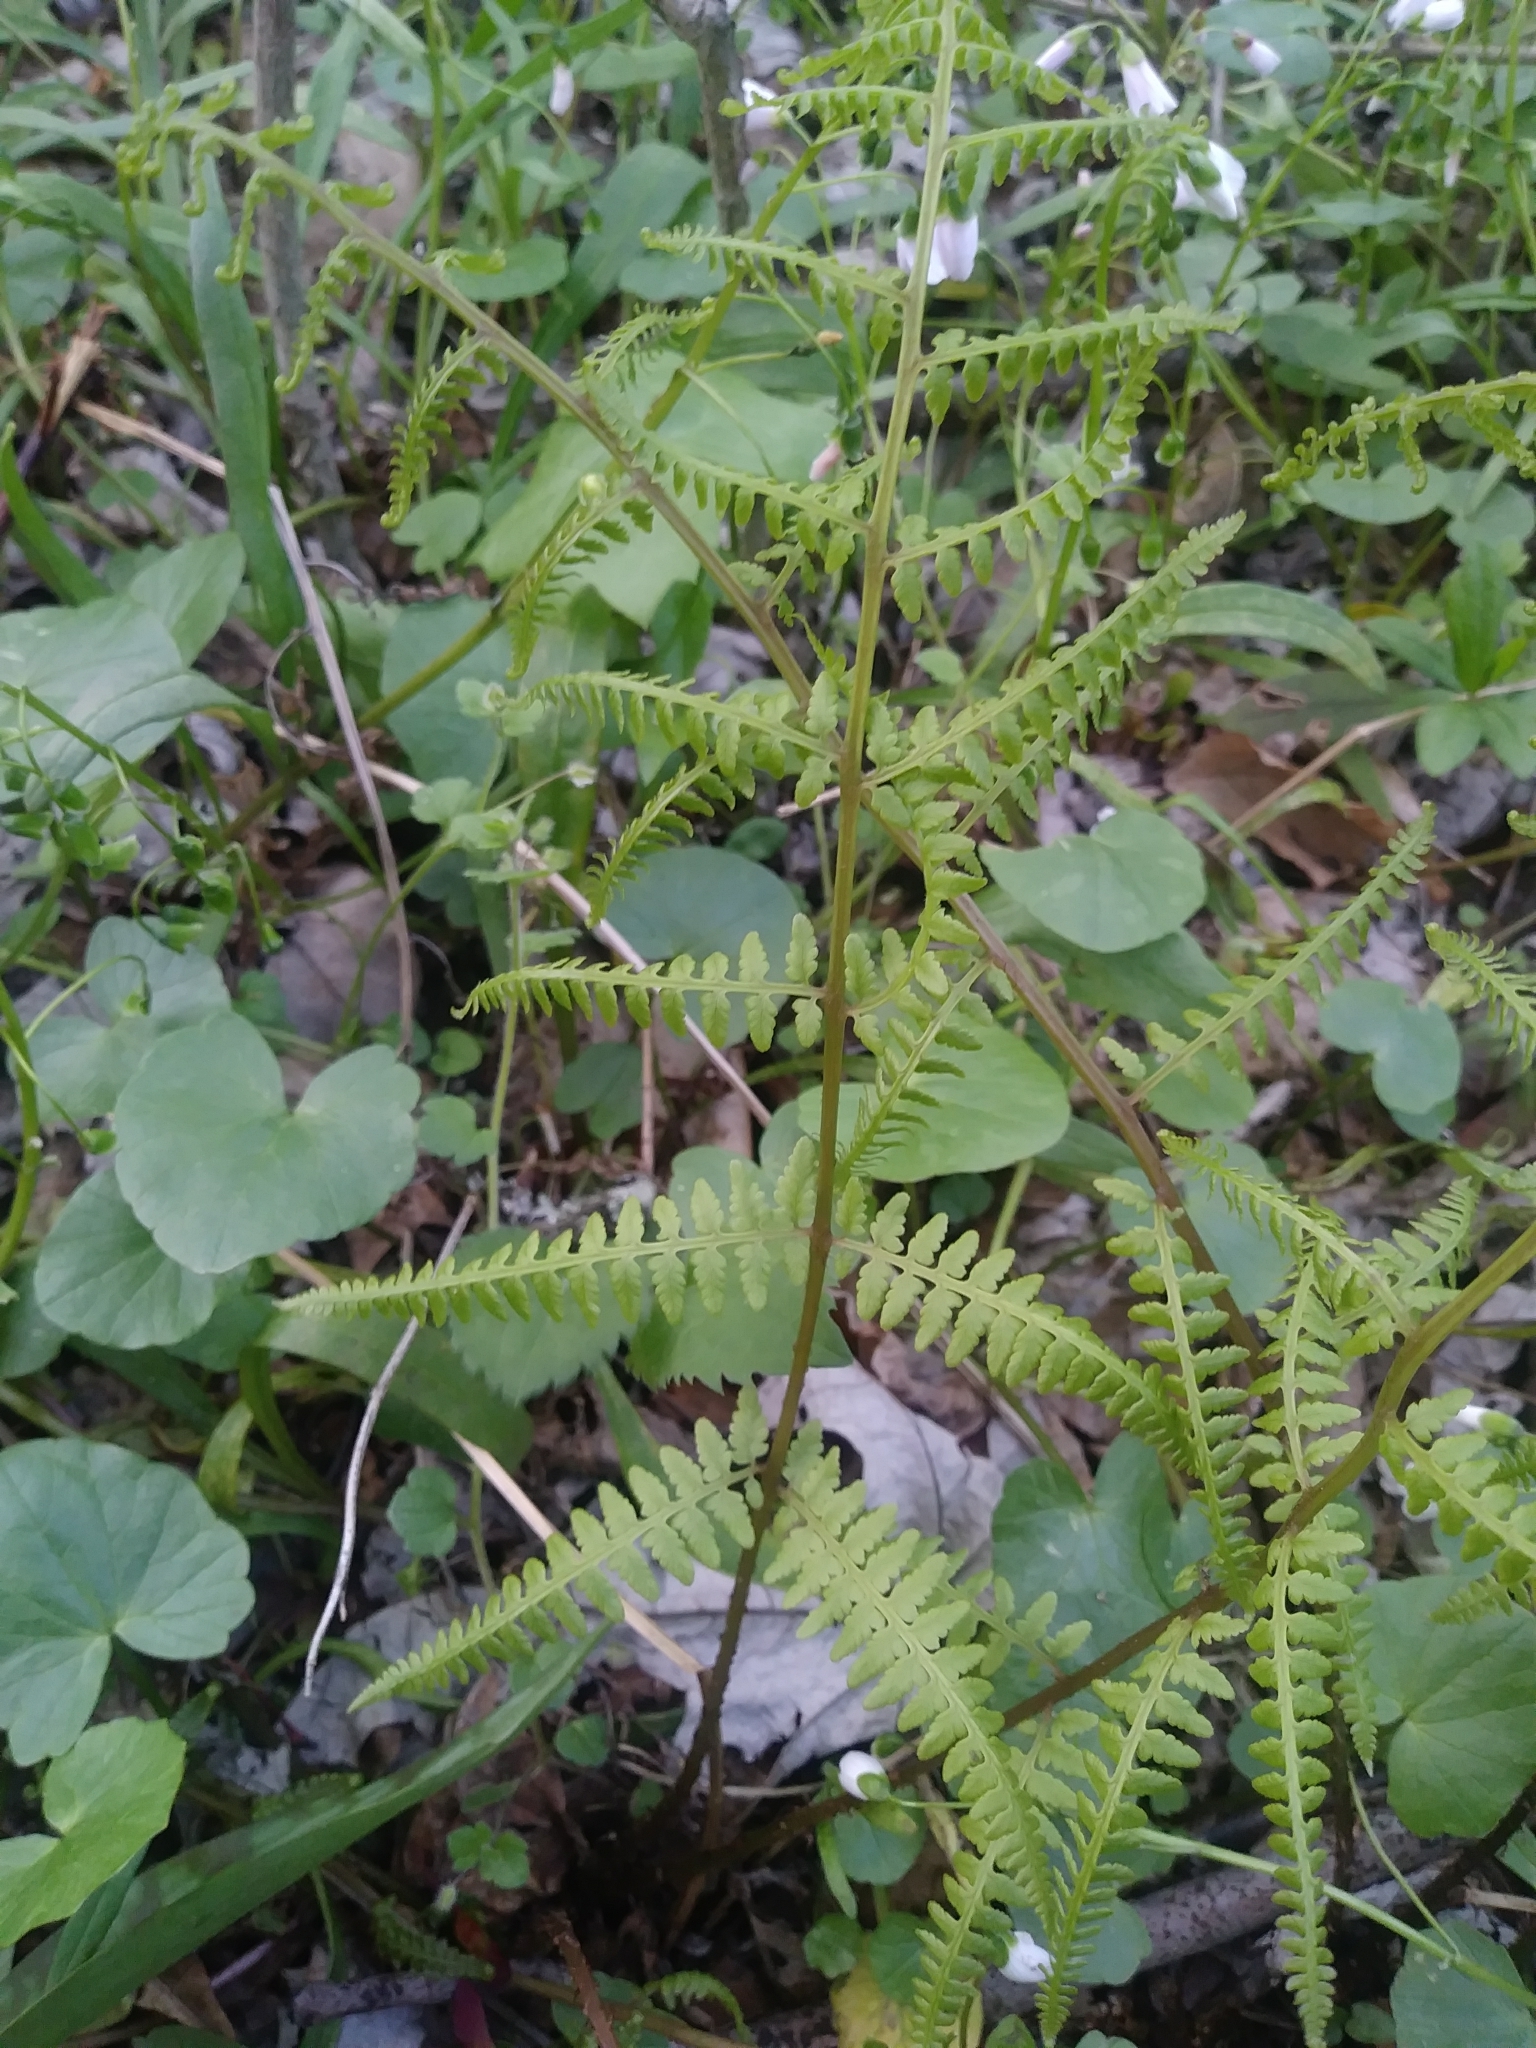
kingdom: Plantae
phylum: Tracheophyta
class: Polypodiopsida
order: Polypodiales
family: Athyriaceae
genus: Athyrium
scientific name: Athyrium asplenioides
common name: Southern lady fern
